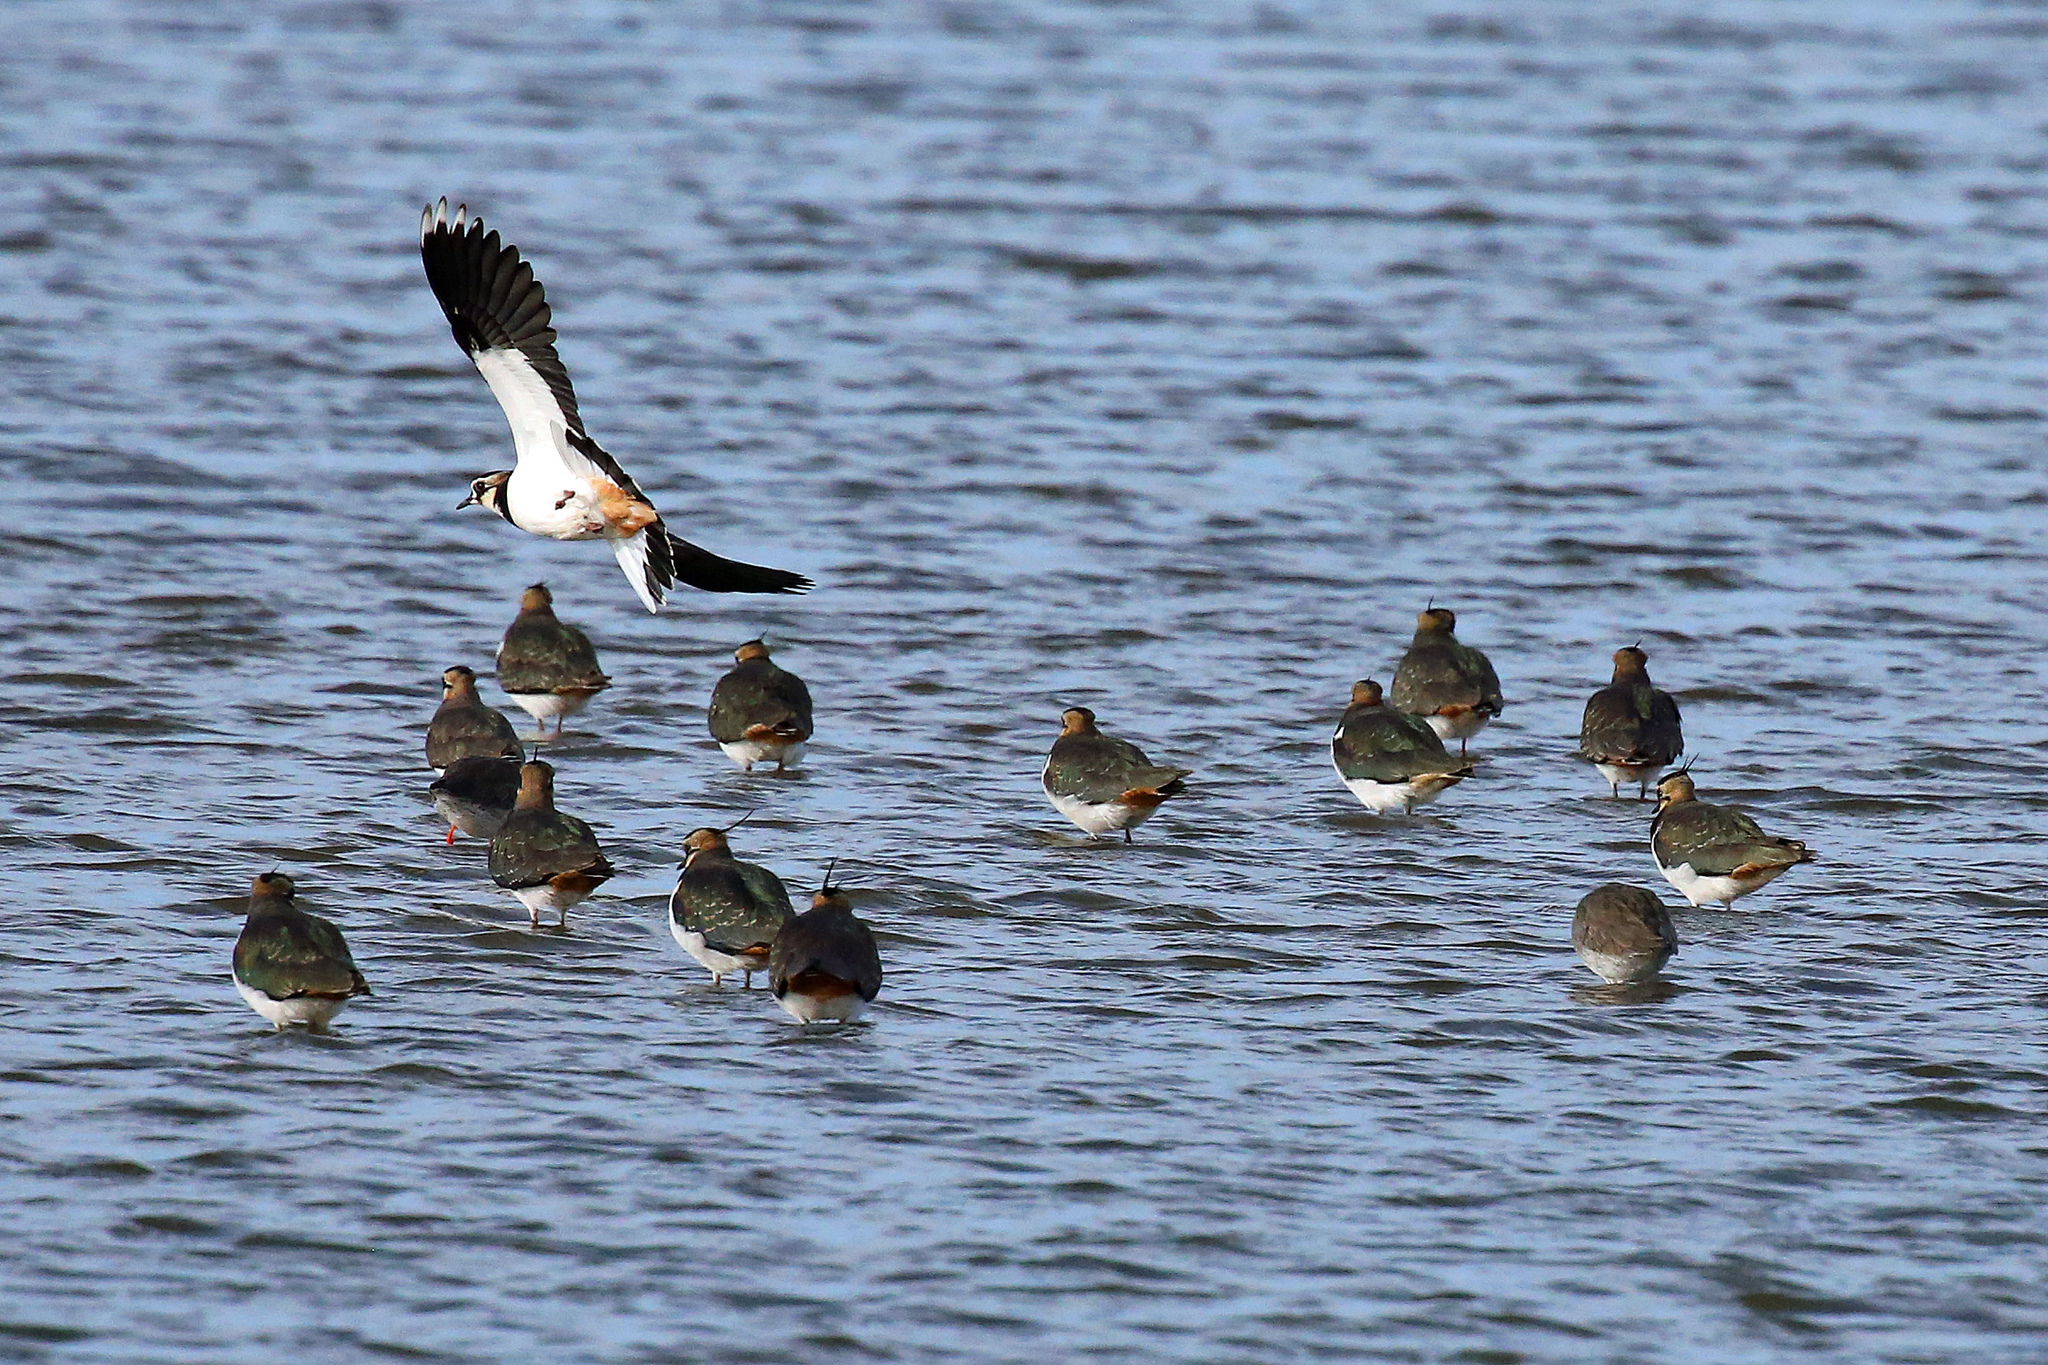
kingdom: Animalia
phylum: Chordata
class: Aves
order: Charadriiformes
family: Charadriidae
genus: Vanellus
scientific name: Vanellus vanellus
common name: Northern lapwing
